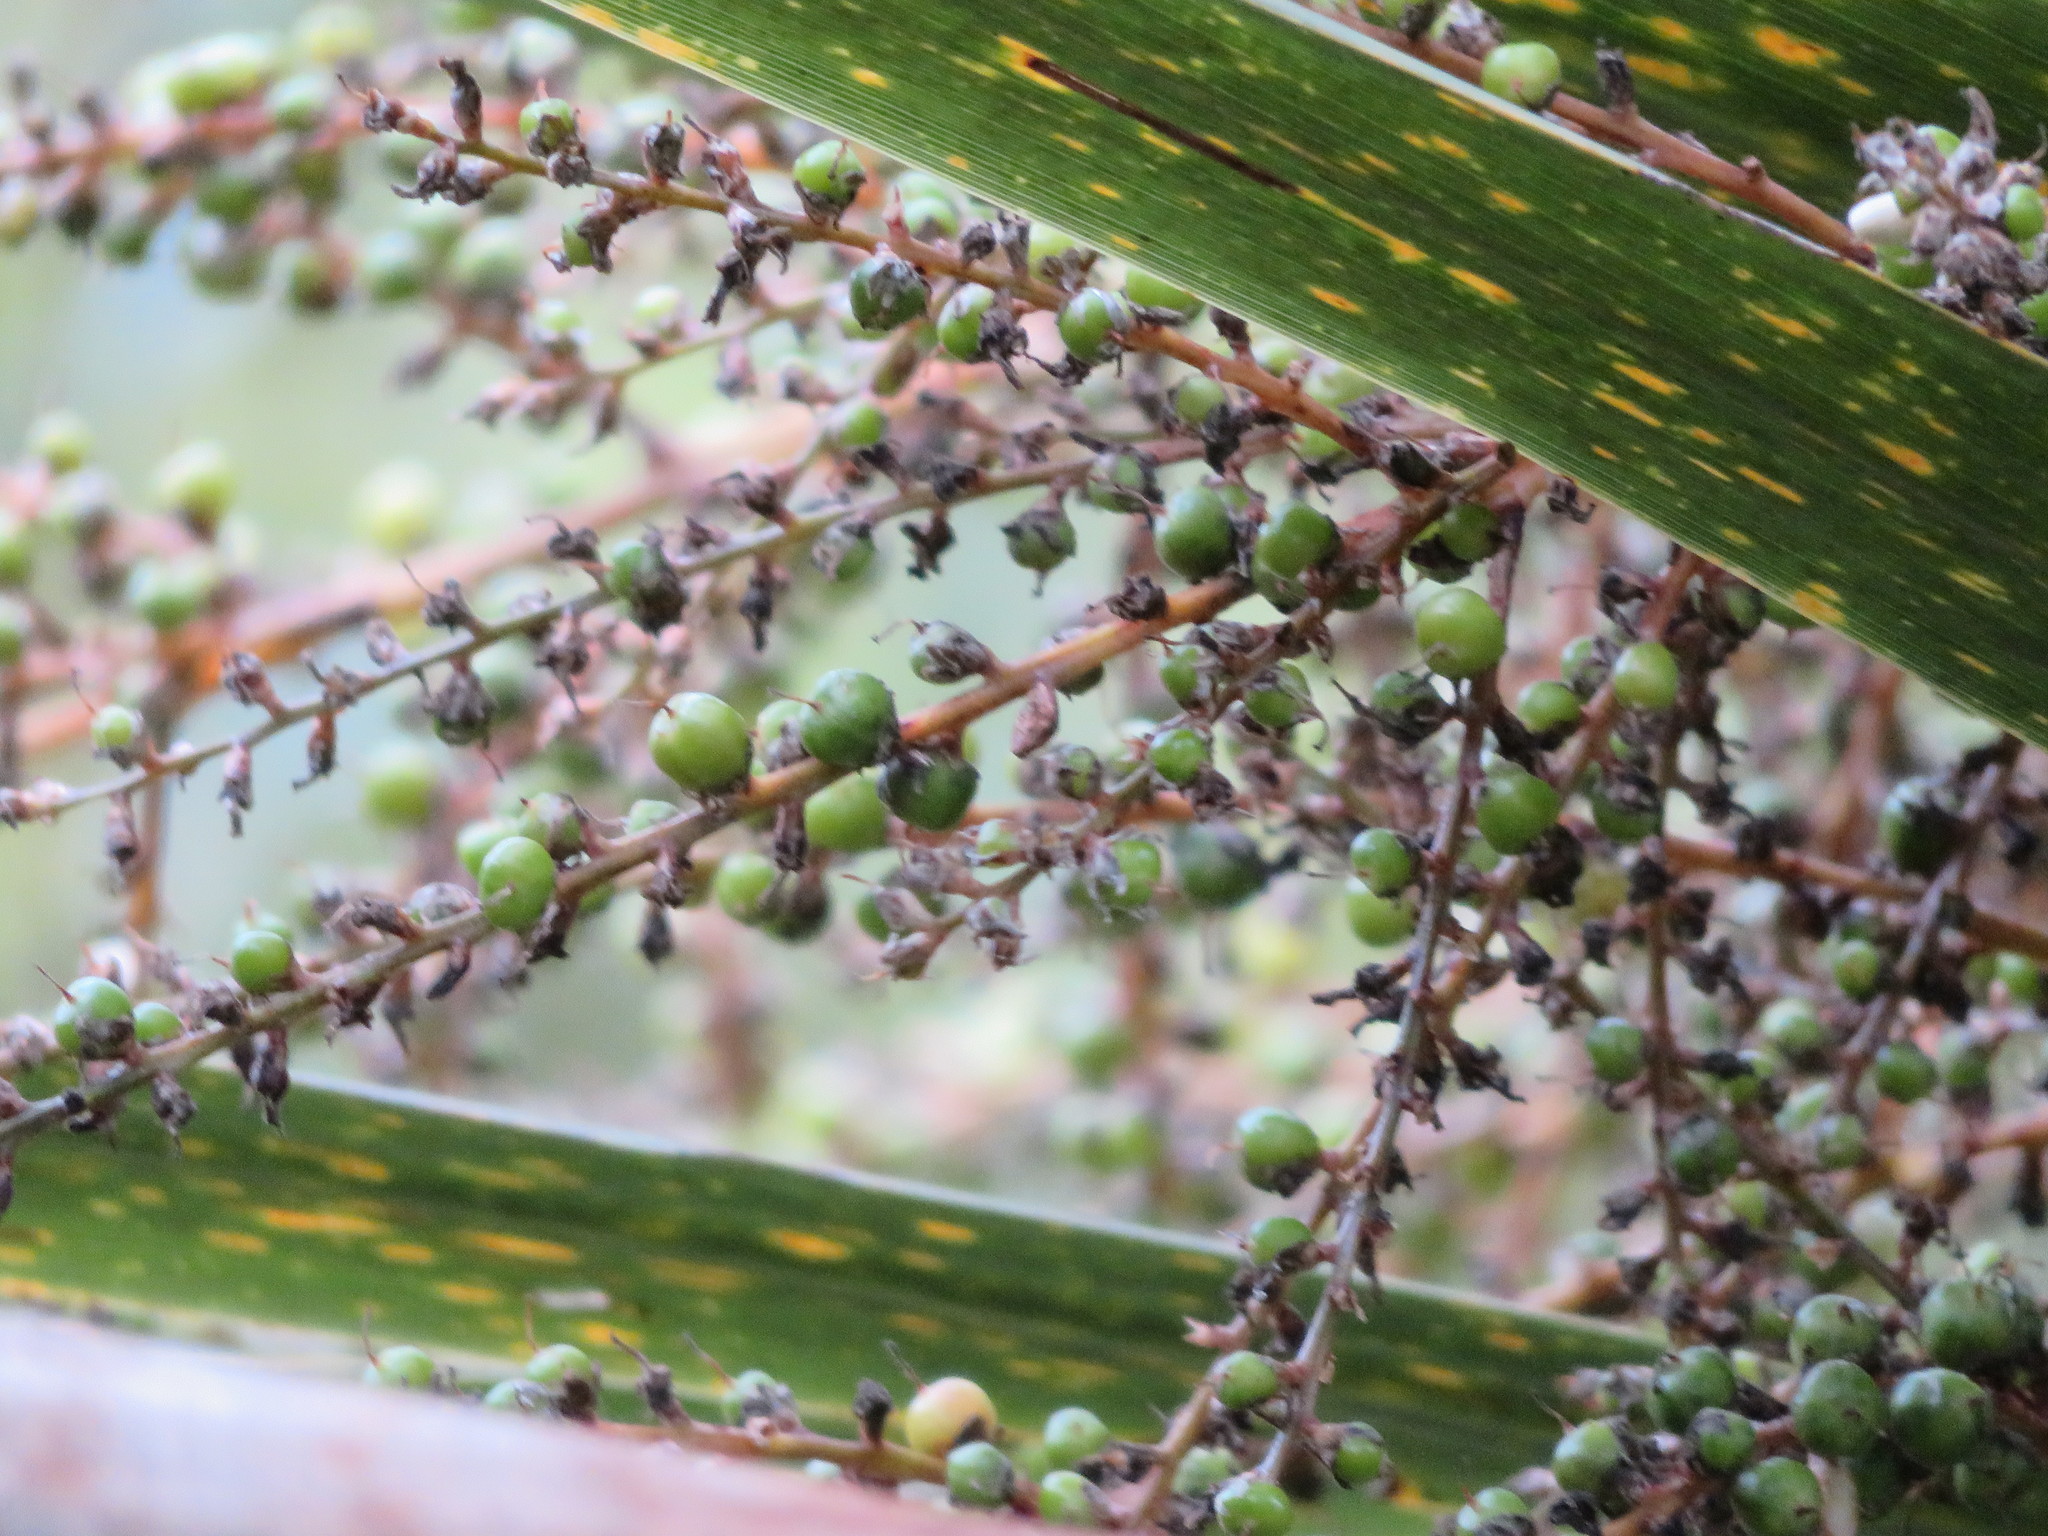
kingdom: Plantae
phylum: Tracheophyta
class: Liliopsida
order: Asparagales
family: Asparagaceae
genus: Cordyline
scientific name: Cordyline australis
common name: Cabbage-palm
